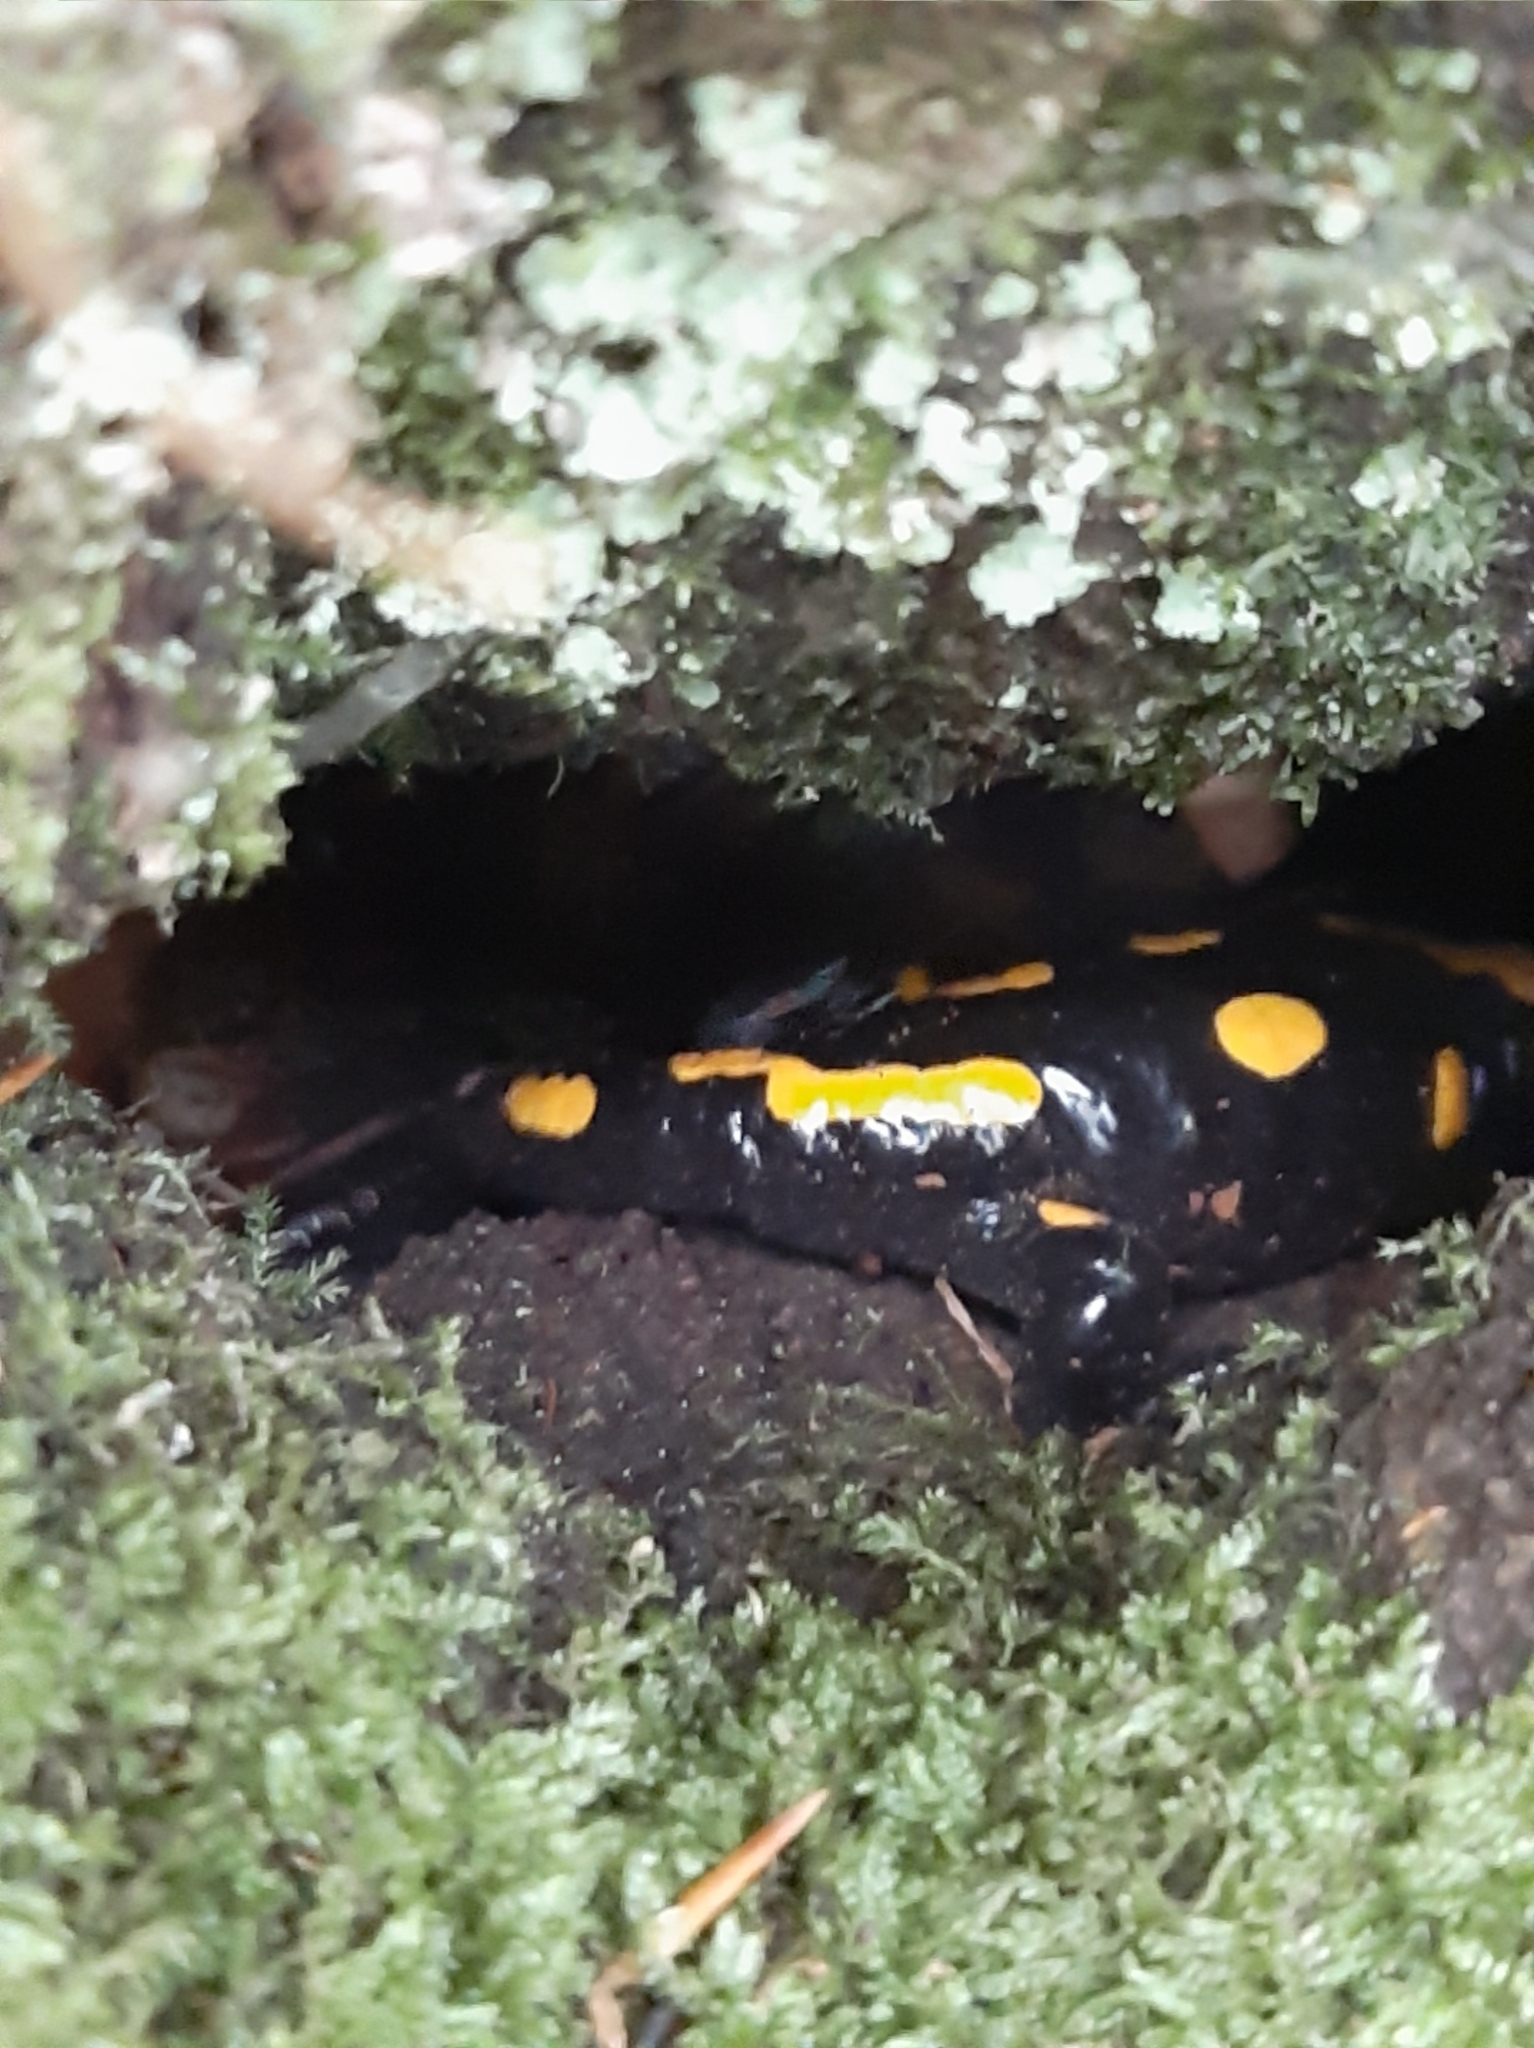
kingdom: Animalia
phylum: Chordata
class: Amphibia
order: Caudata
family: Salamandridae
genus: Salamandra
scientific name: Salamandra salamandra
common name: Fire salamander
